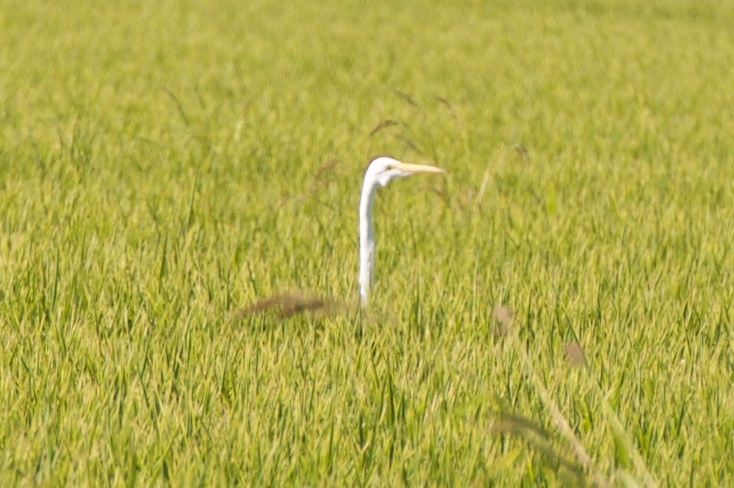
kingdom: Animalia
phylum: Chordata
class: Aves
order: Pelecaniformes
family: Ardeidae
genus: Ardea
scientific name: Ardea alba
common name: Great egret
